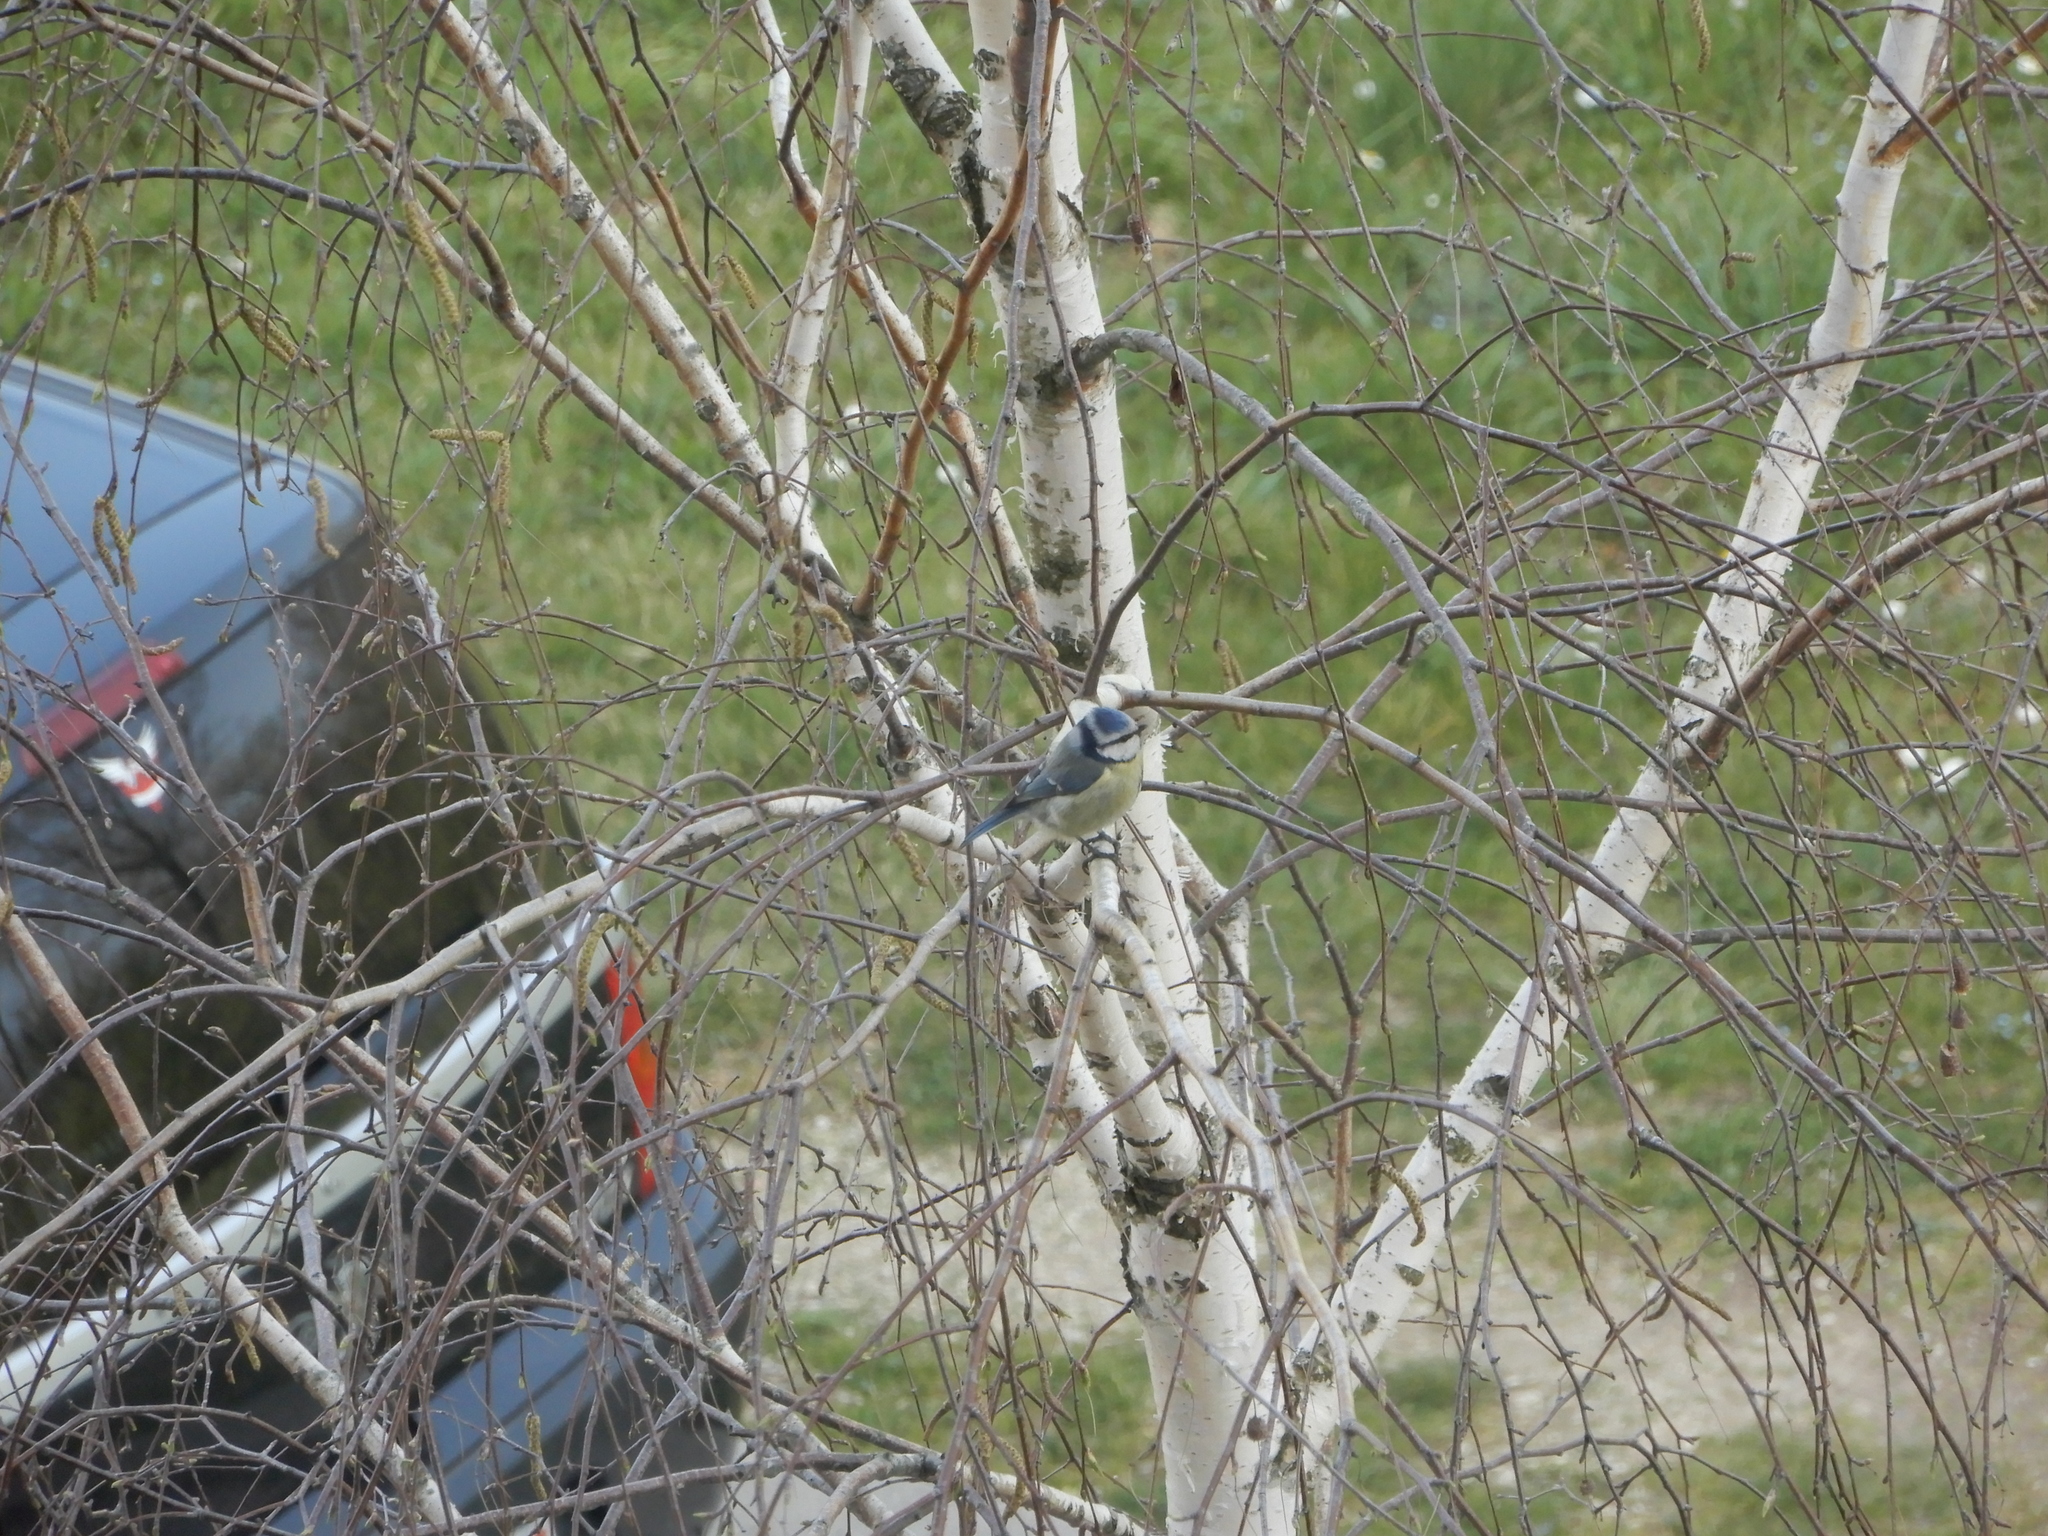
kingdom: Animalia
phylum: Chordata
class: Aves
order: Passeriformes
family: Paridae
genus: Cyanistes
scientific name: Cyanistes caeruleus
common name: Eurasian blue tit
